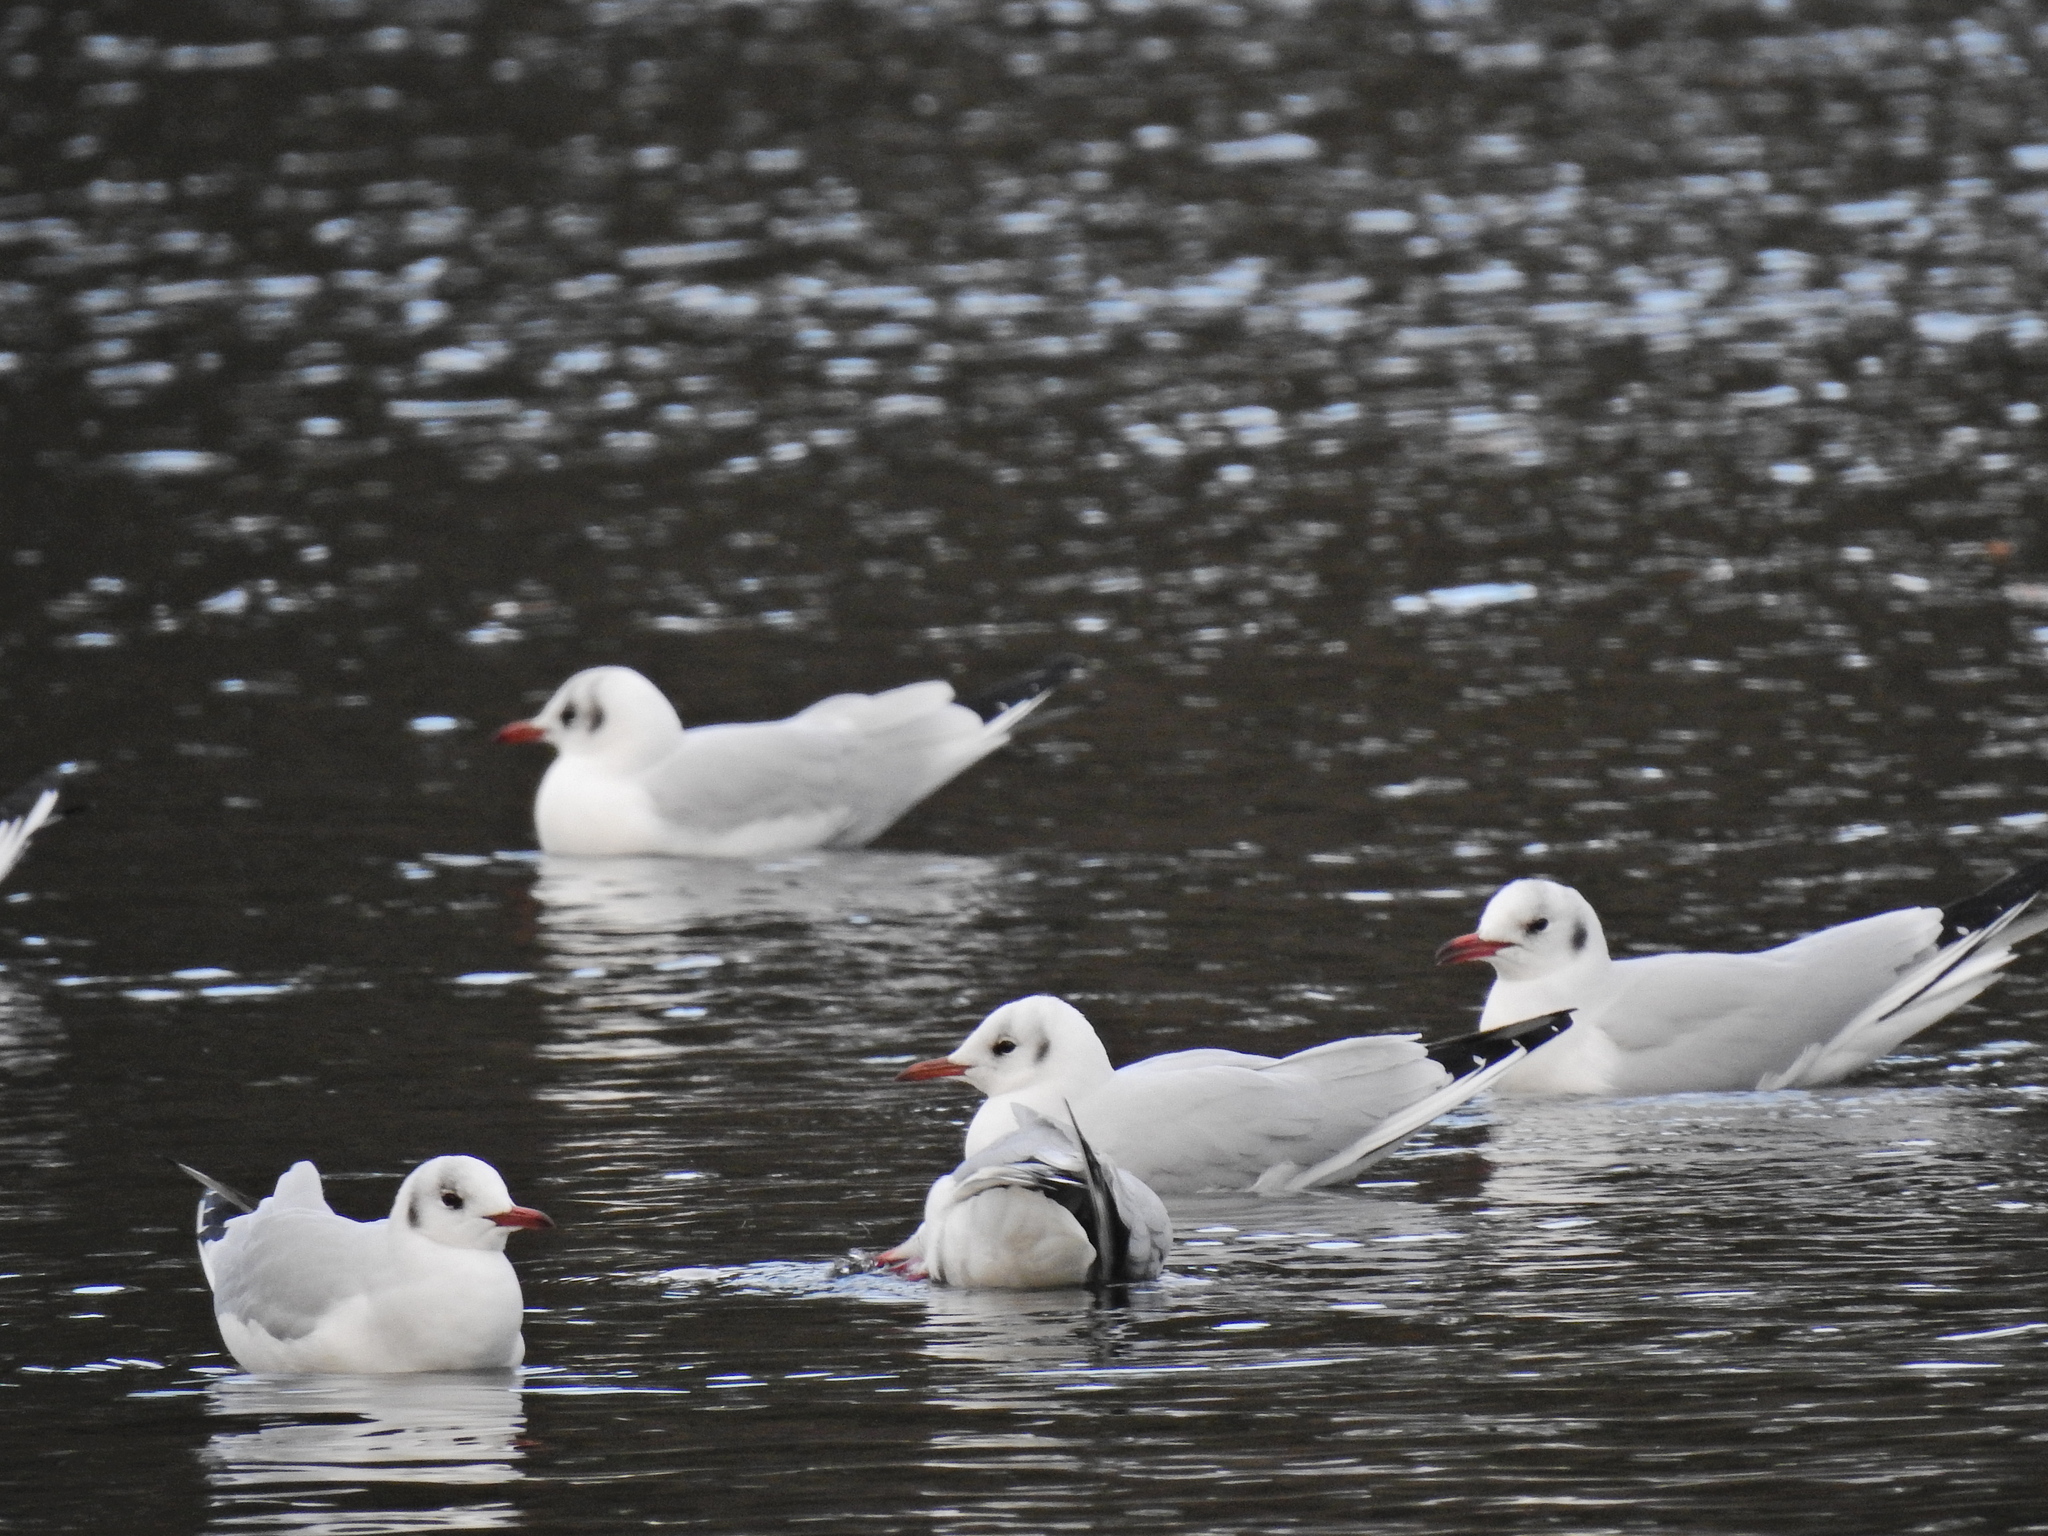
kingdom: Animalia
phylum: Chordata
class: Aves
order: Charadriiformes
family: Laridae
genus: Chroicocephalus
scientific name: Chroicocephalus ridibundus
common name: Black-headed gull
